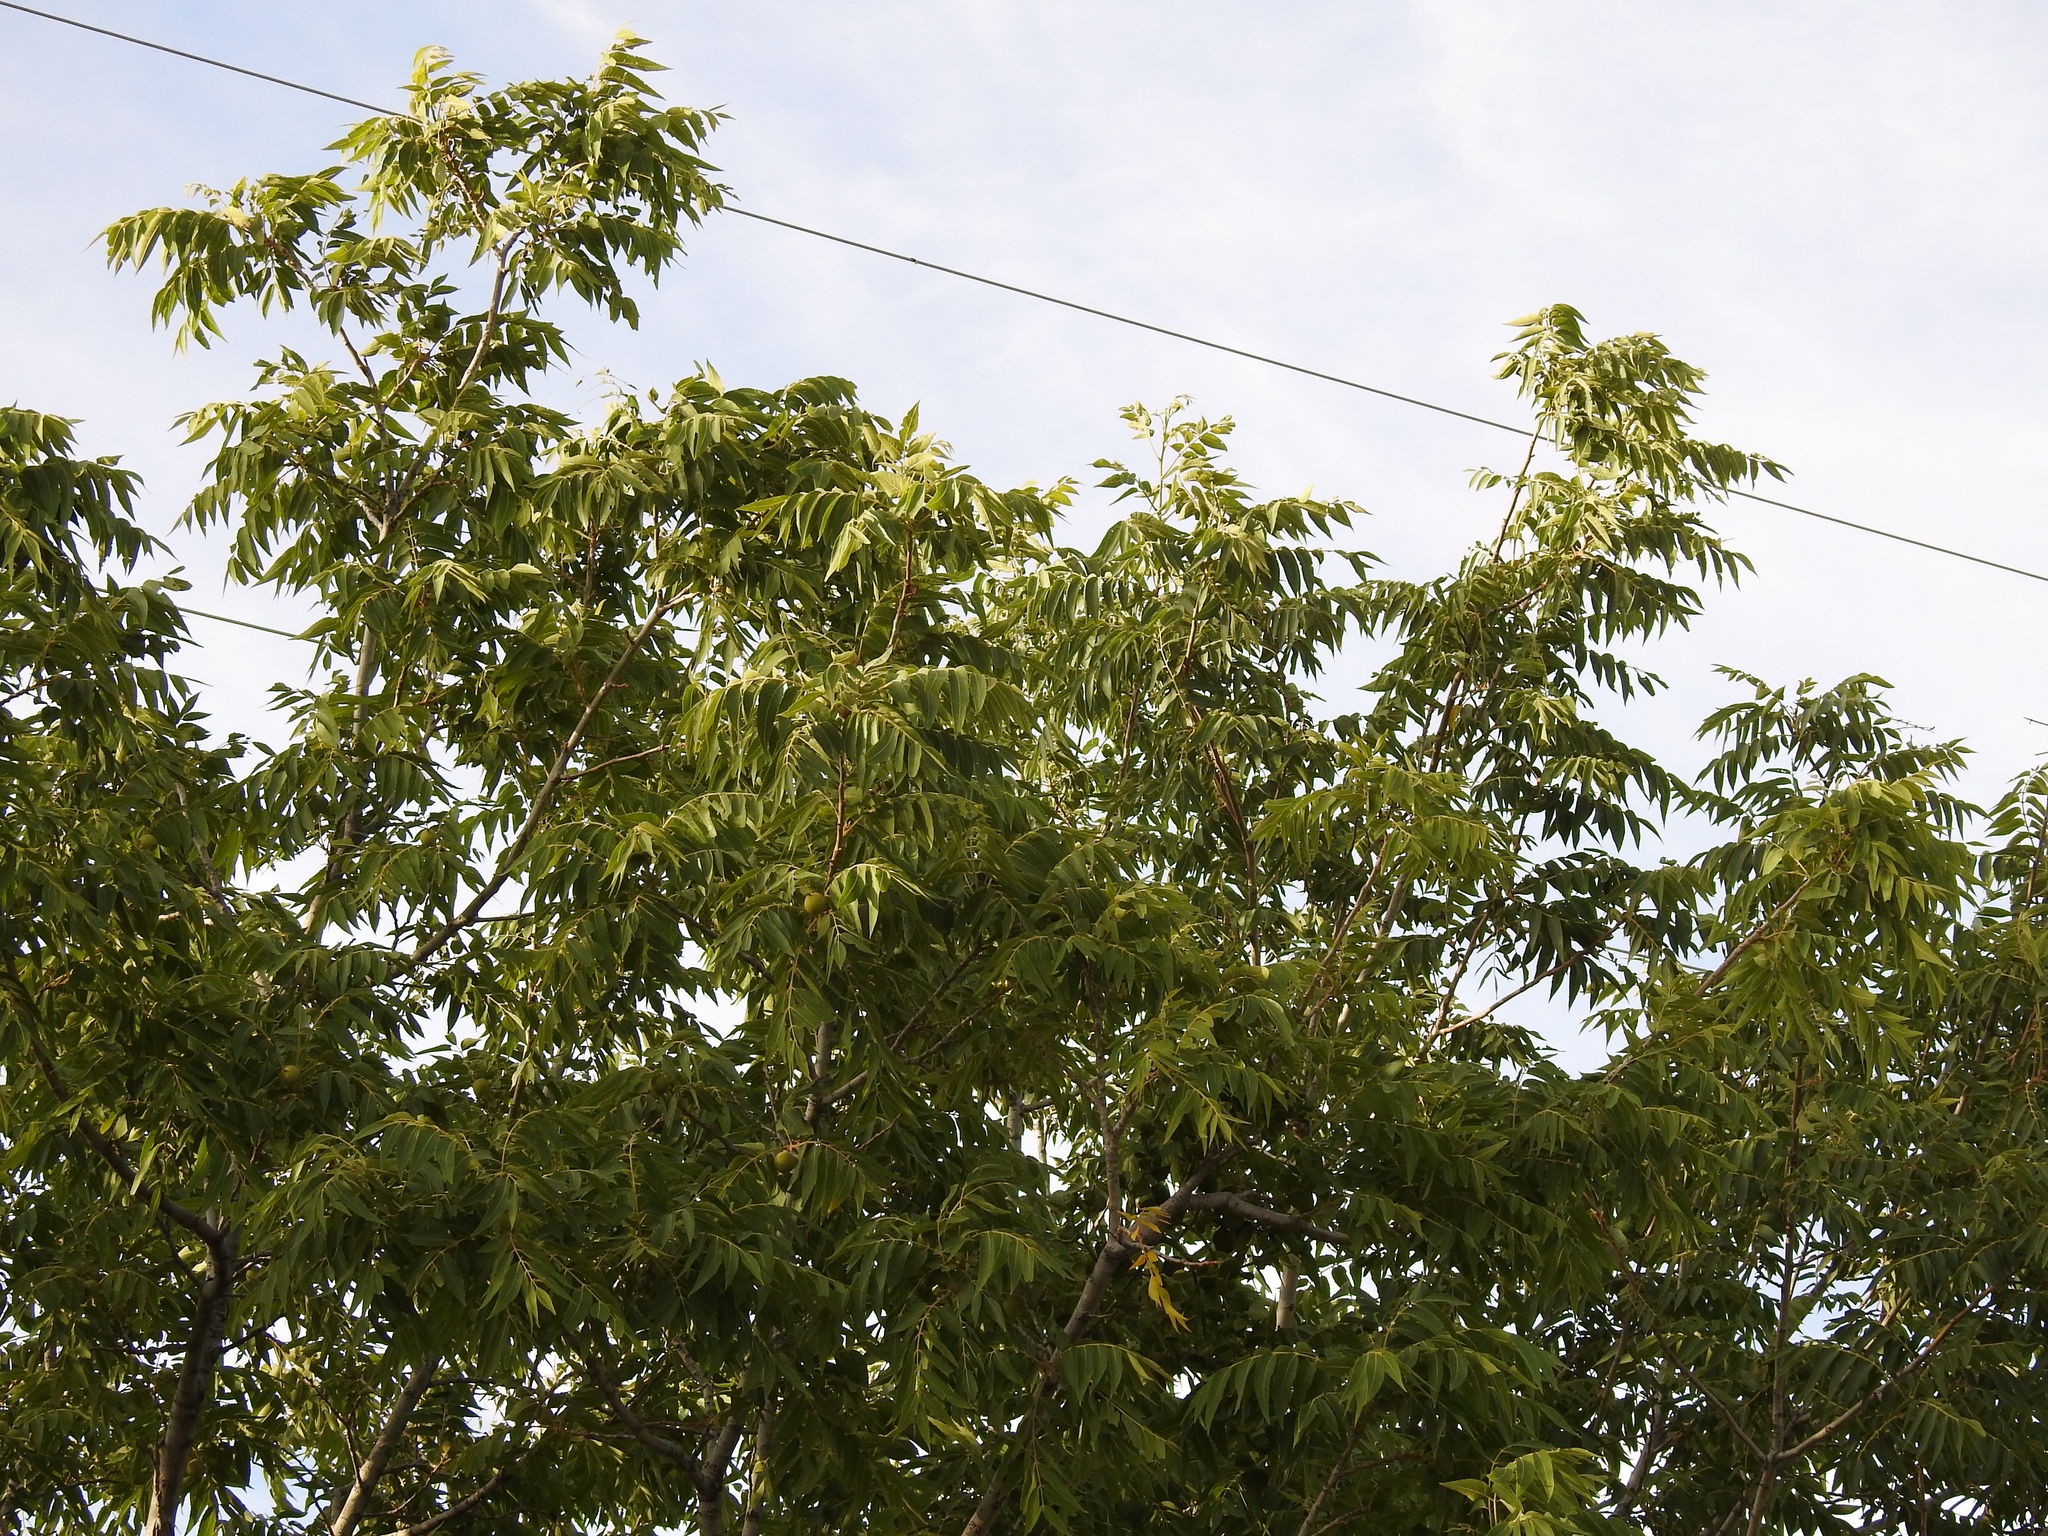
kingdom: Plantae
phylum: Tracheophyta
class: Magnoliopsida
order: Fagales
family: Juglandaceae
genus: Juglans
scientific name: Juglans major
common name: Arizona walnut
